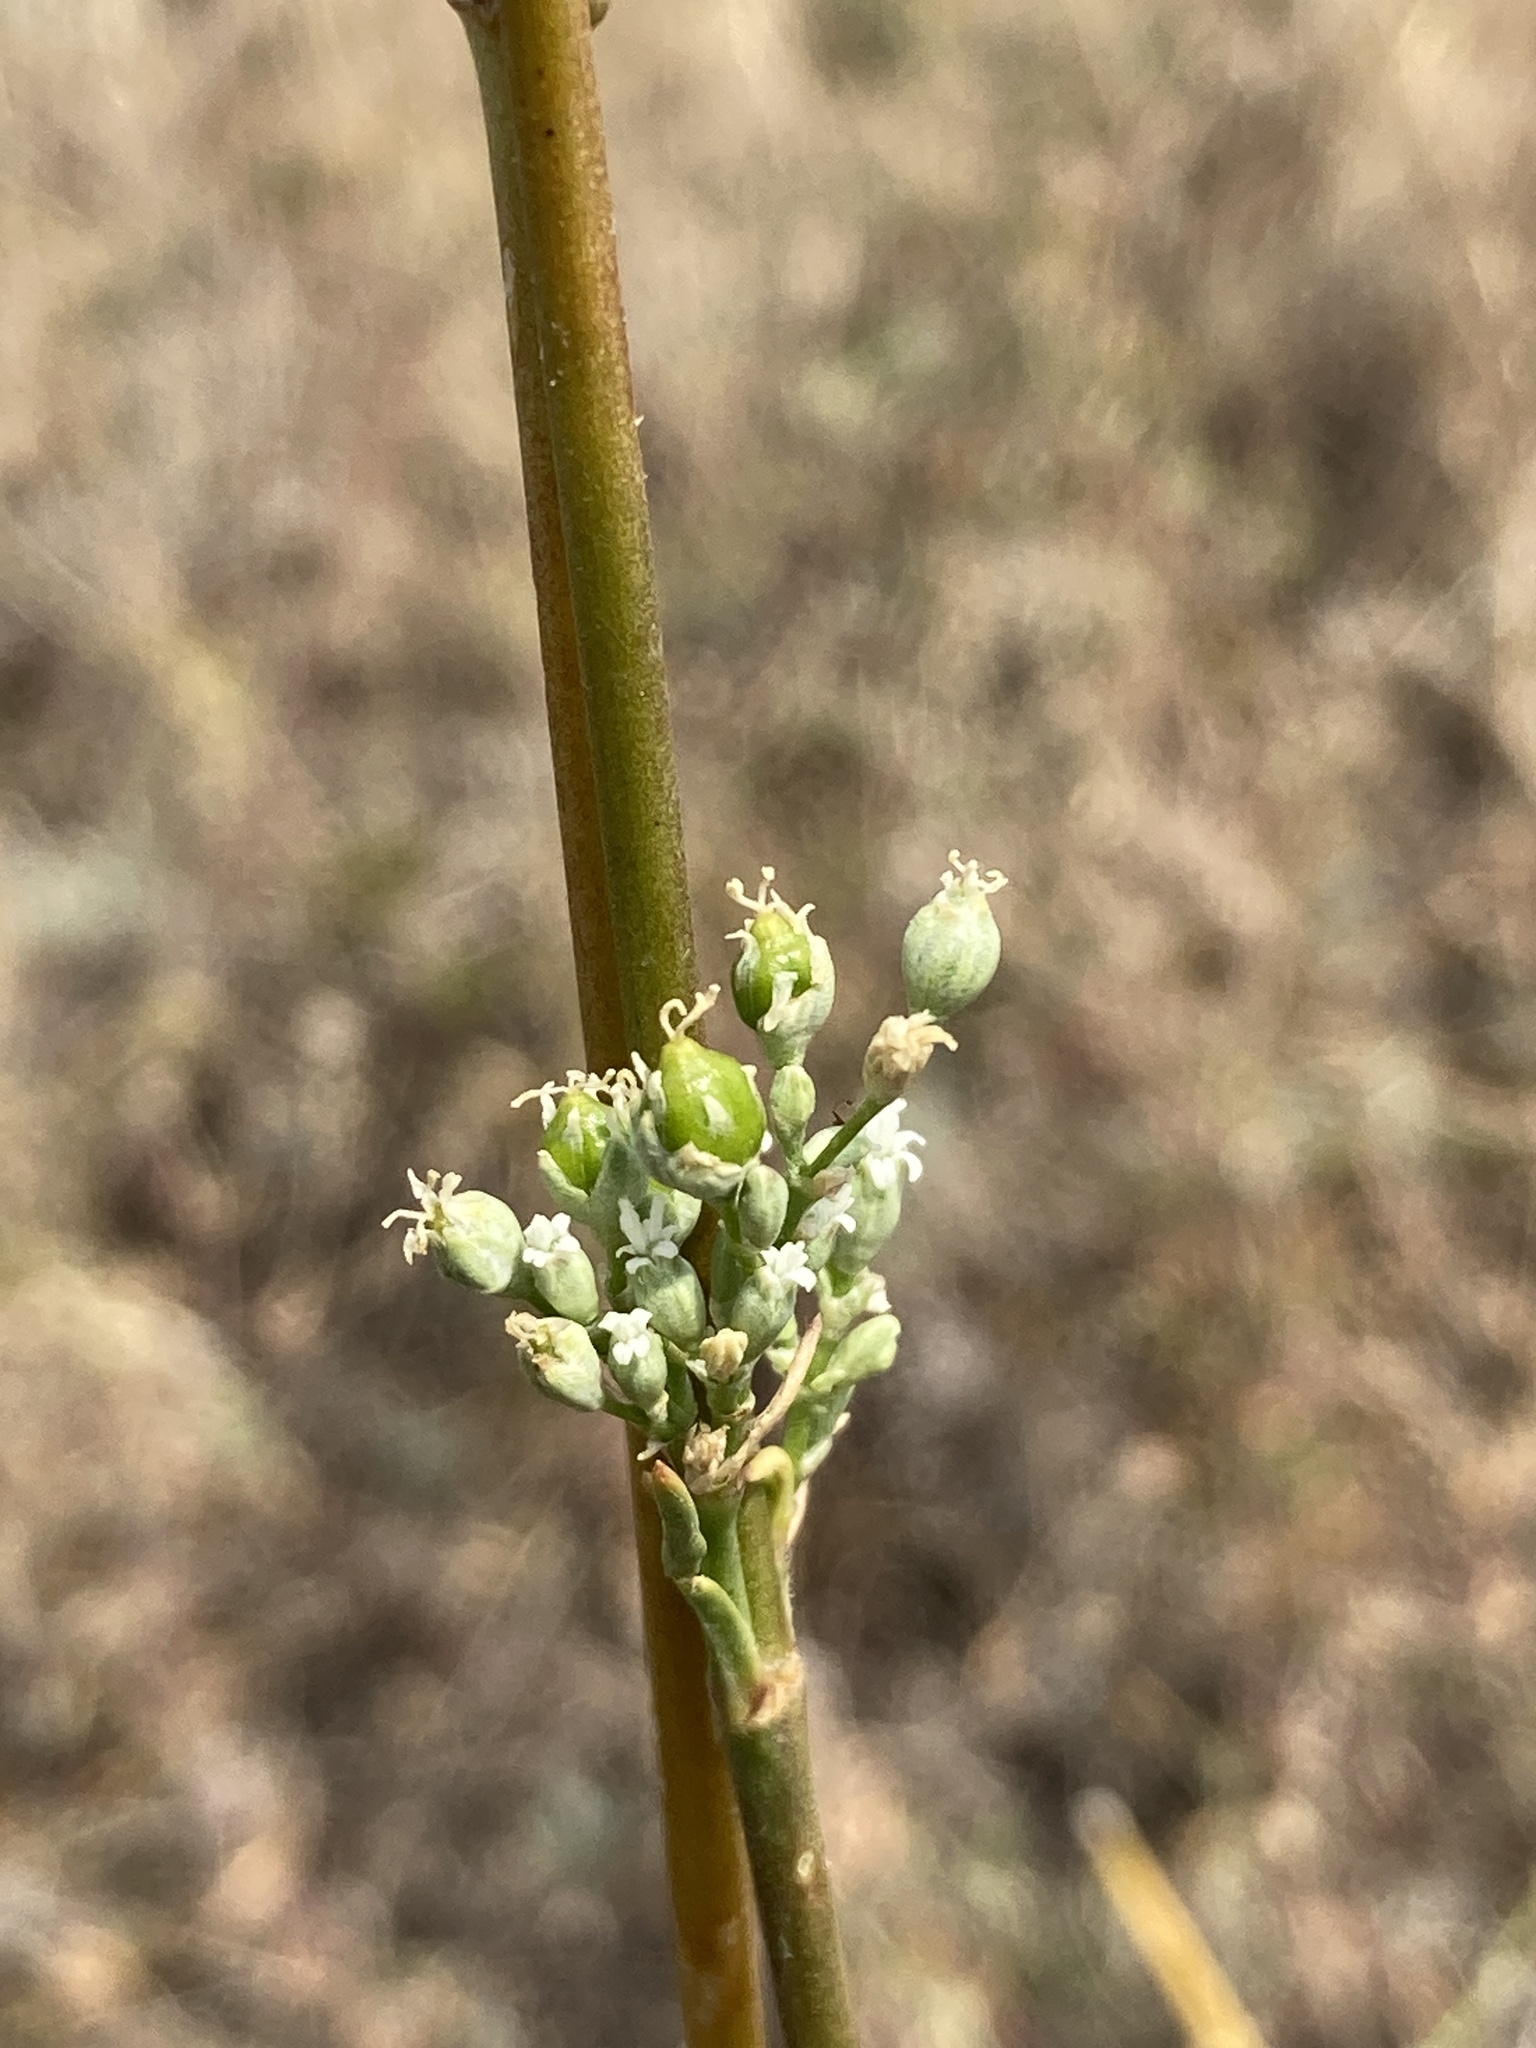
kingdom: Plantae
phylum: Tracheophyta
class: Magnoliopsida
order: Caryophyllales
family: Caryophyllaceae
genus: Silene
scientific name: Silene wolgensis
